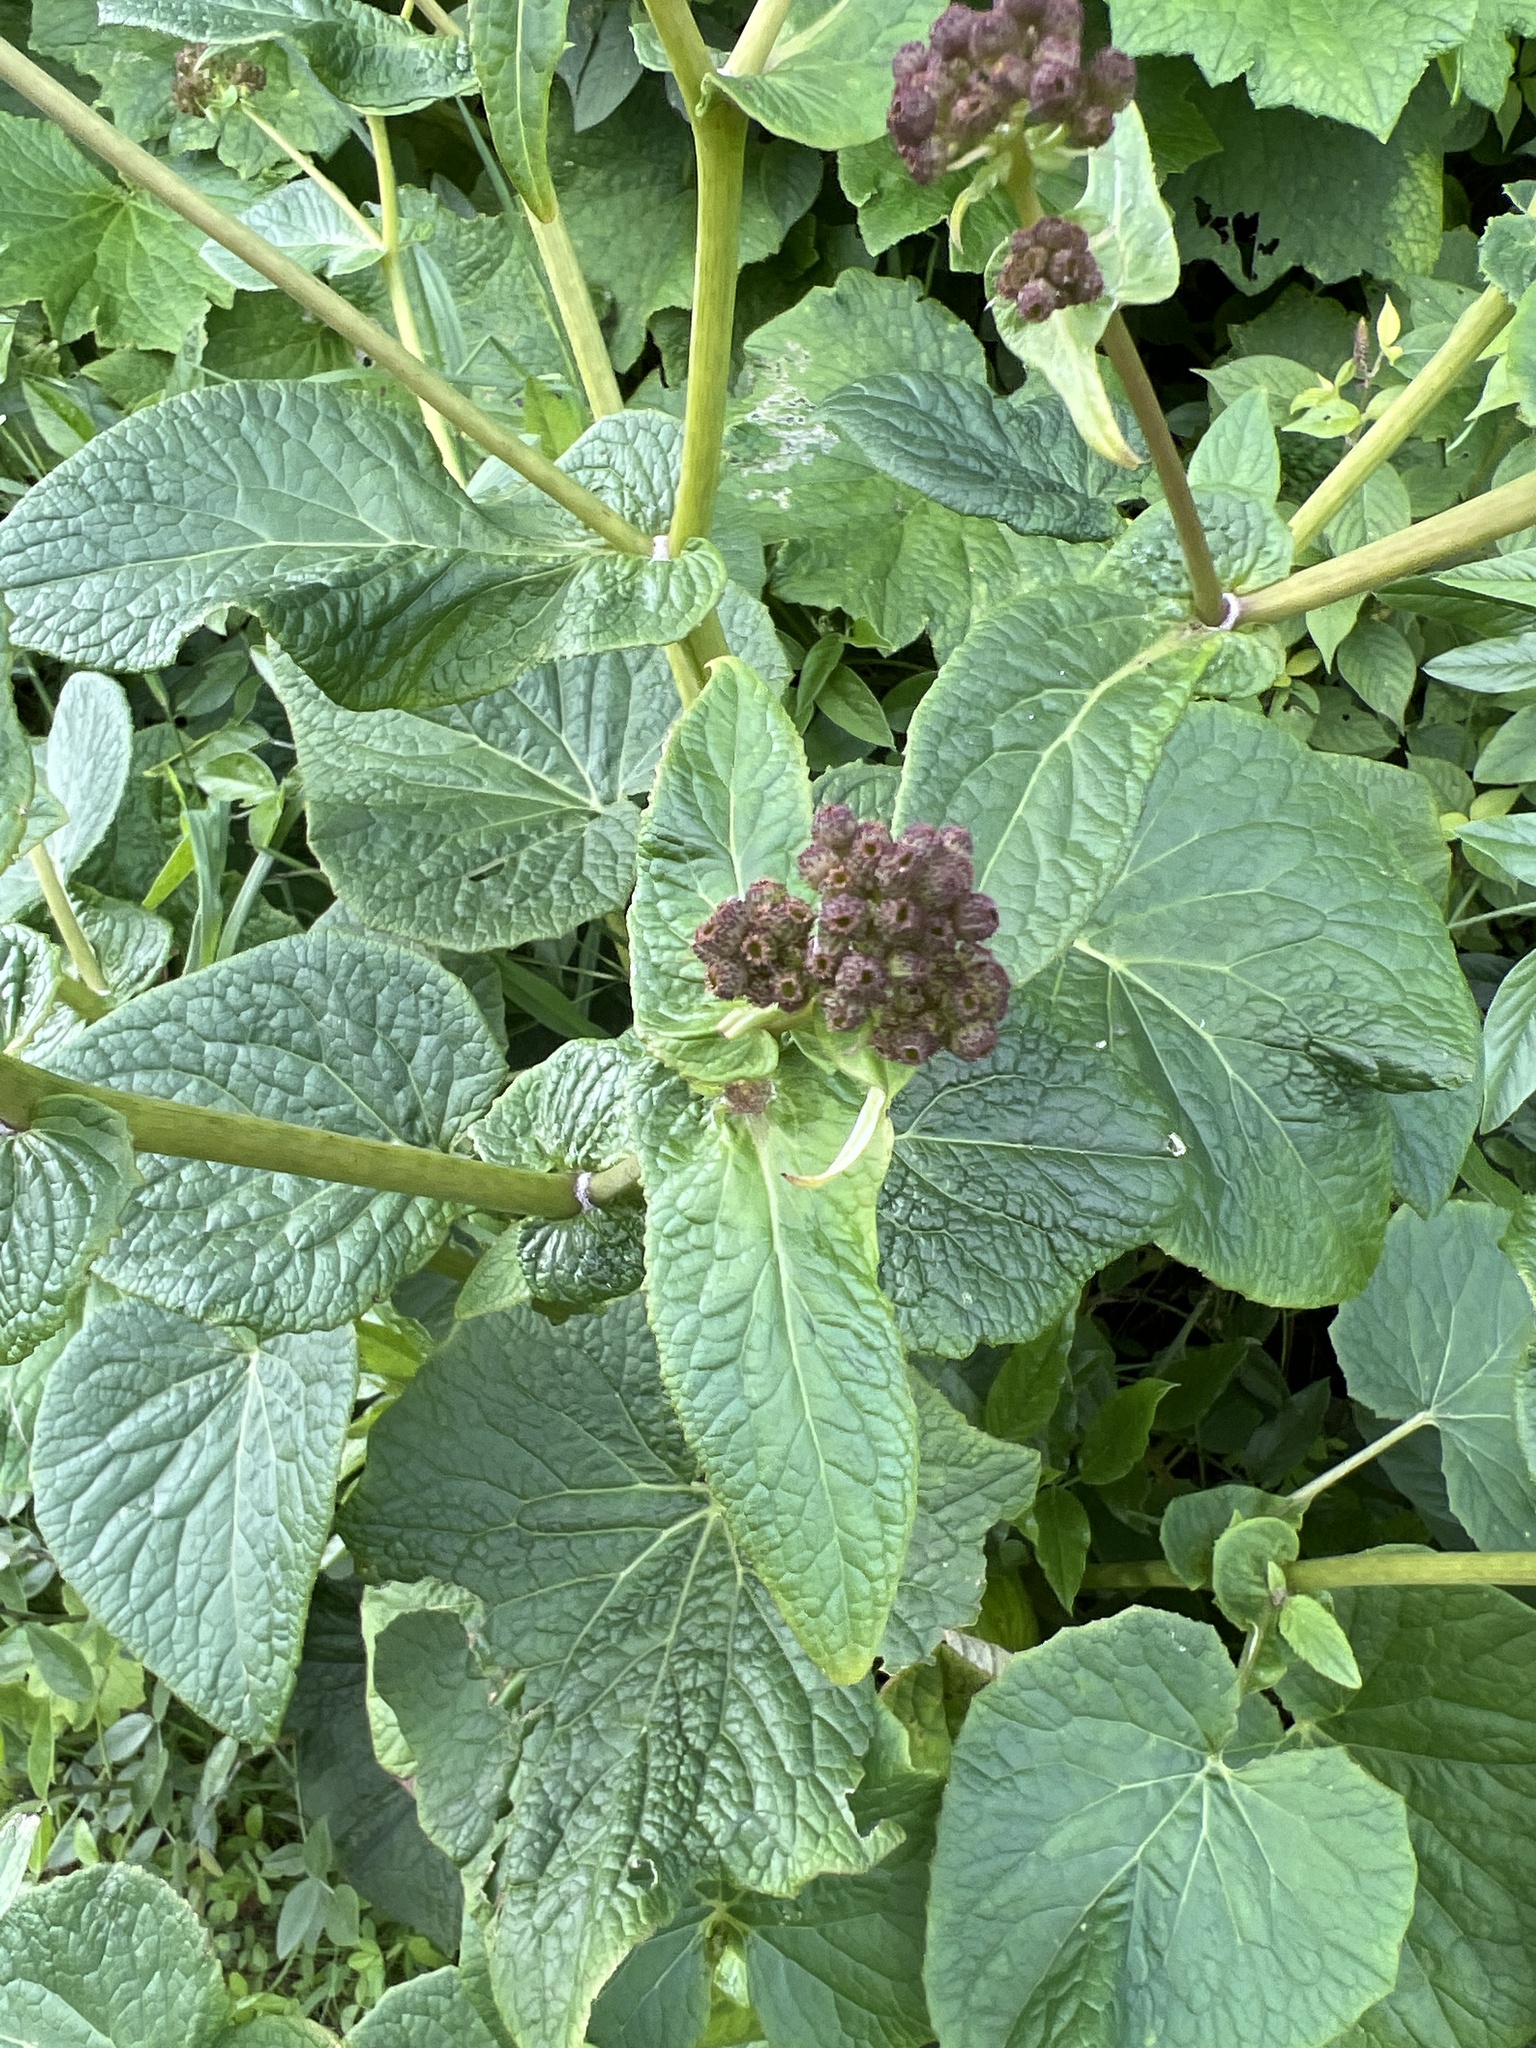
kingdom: Plantae
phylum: Tracheophyta
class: Magnoliopsida
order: Asterales
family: Asteraceae
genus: Pericallis
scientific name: Pericallis murrayi
